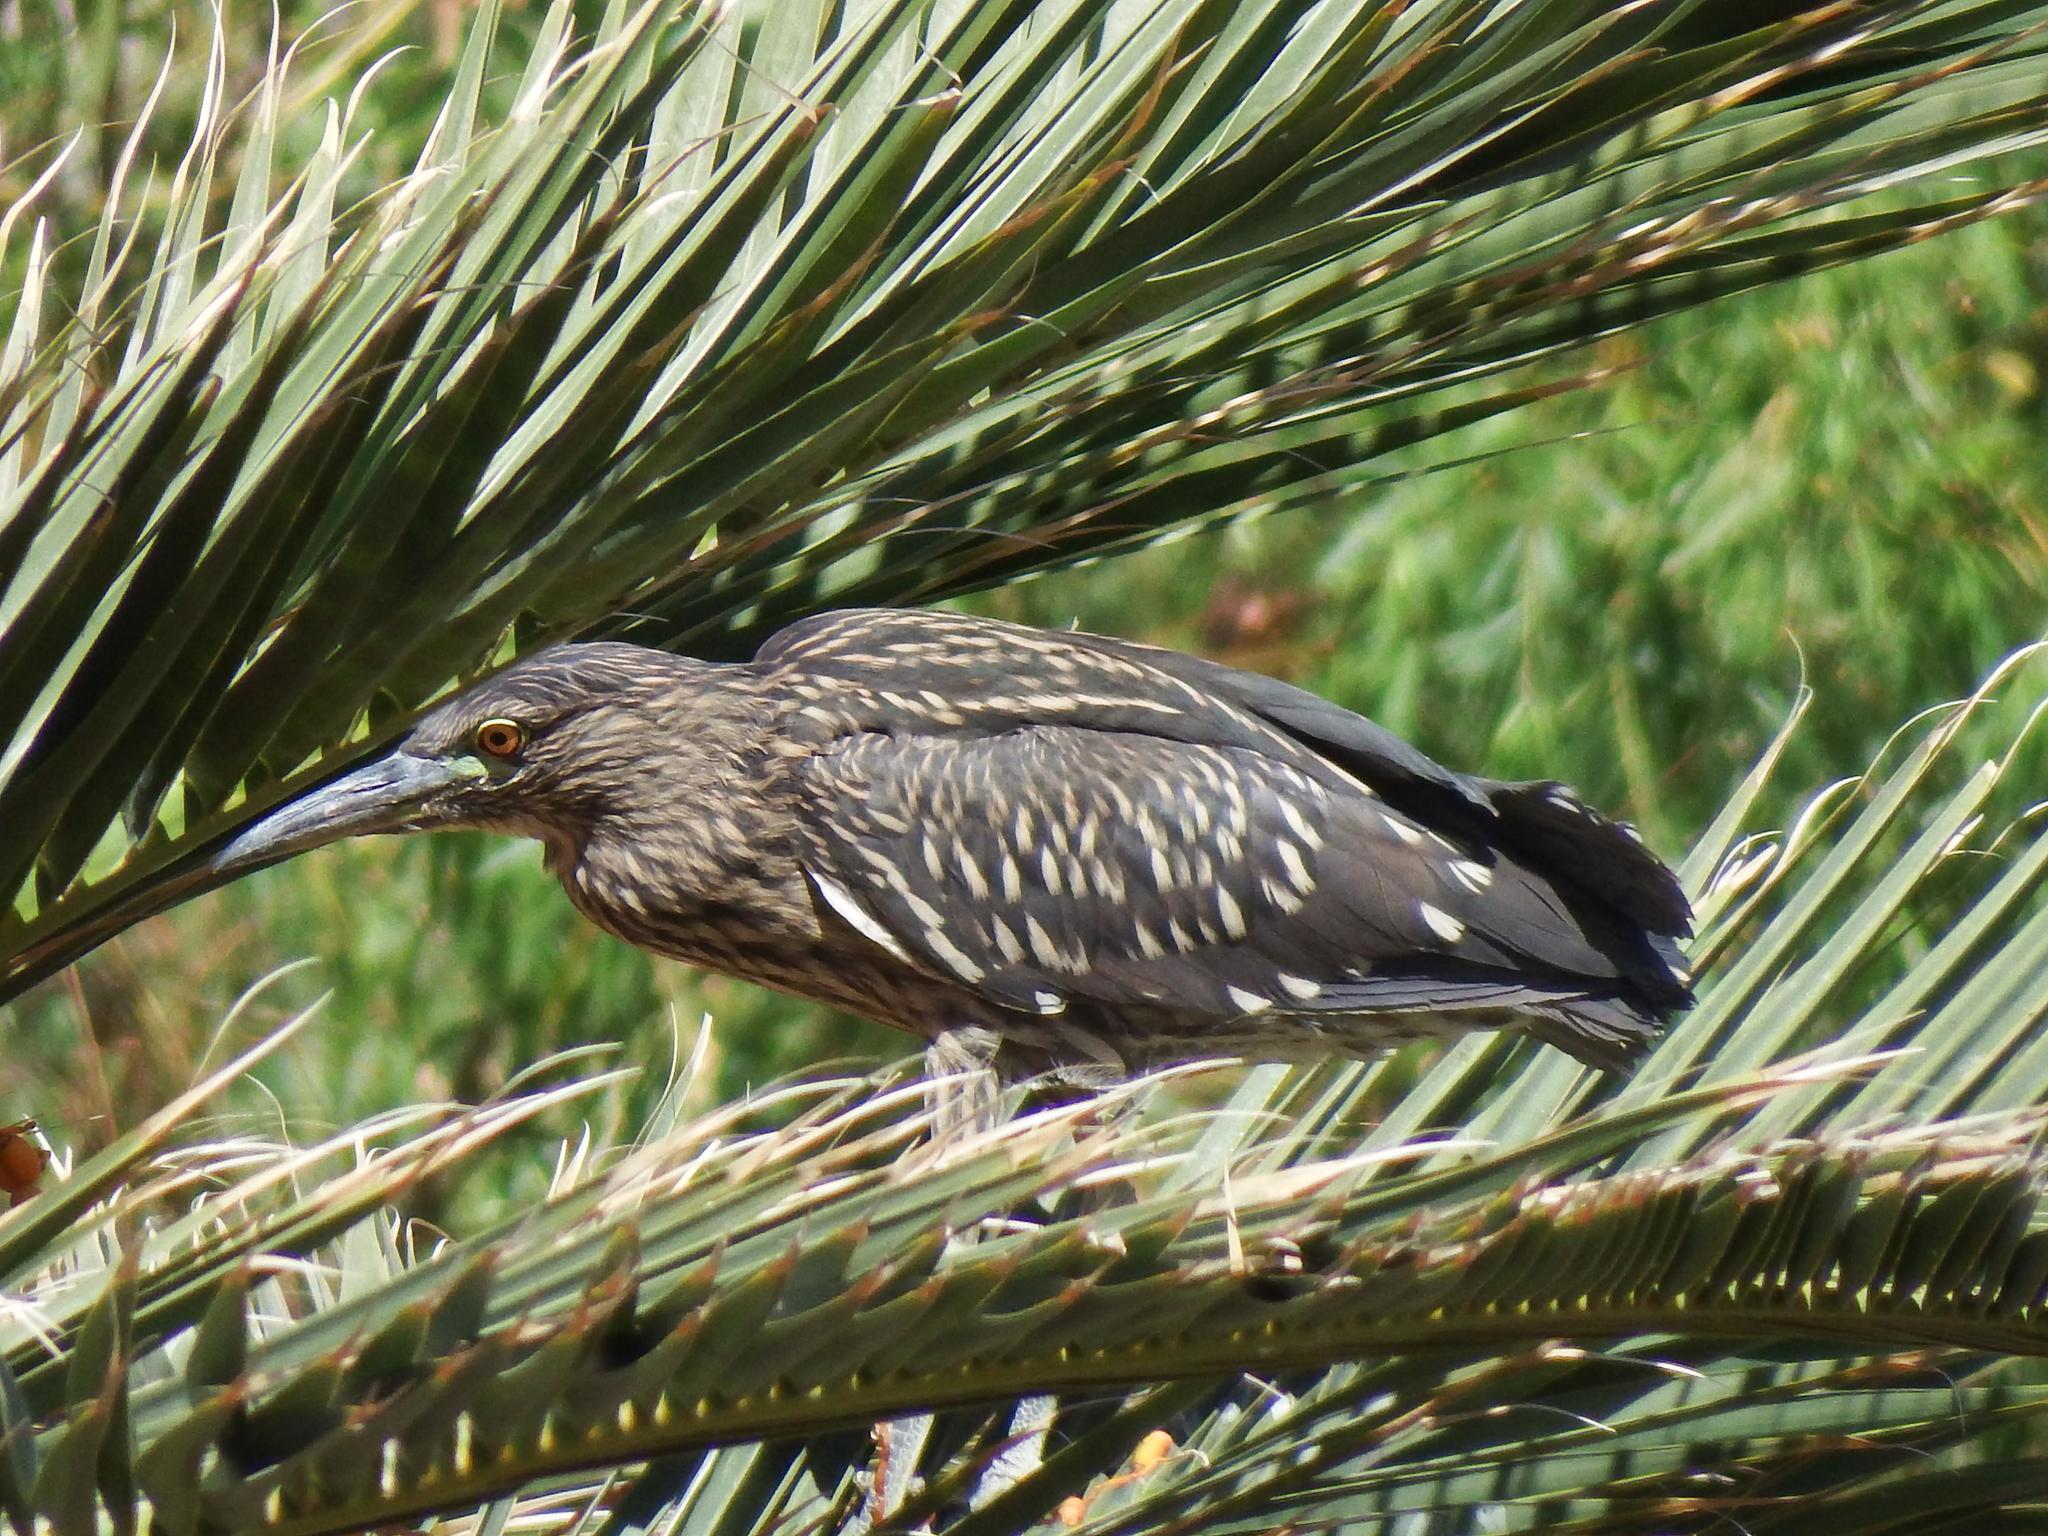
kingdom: Animalia
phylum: Chordata
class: Aves
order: Pelecaniformes
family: Ardeidae
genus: Nycticorax
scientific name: Nycticorax nycticorax
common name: Black-crowned night heron
